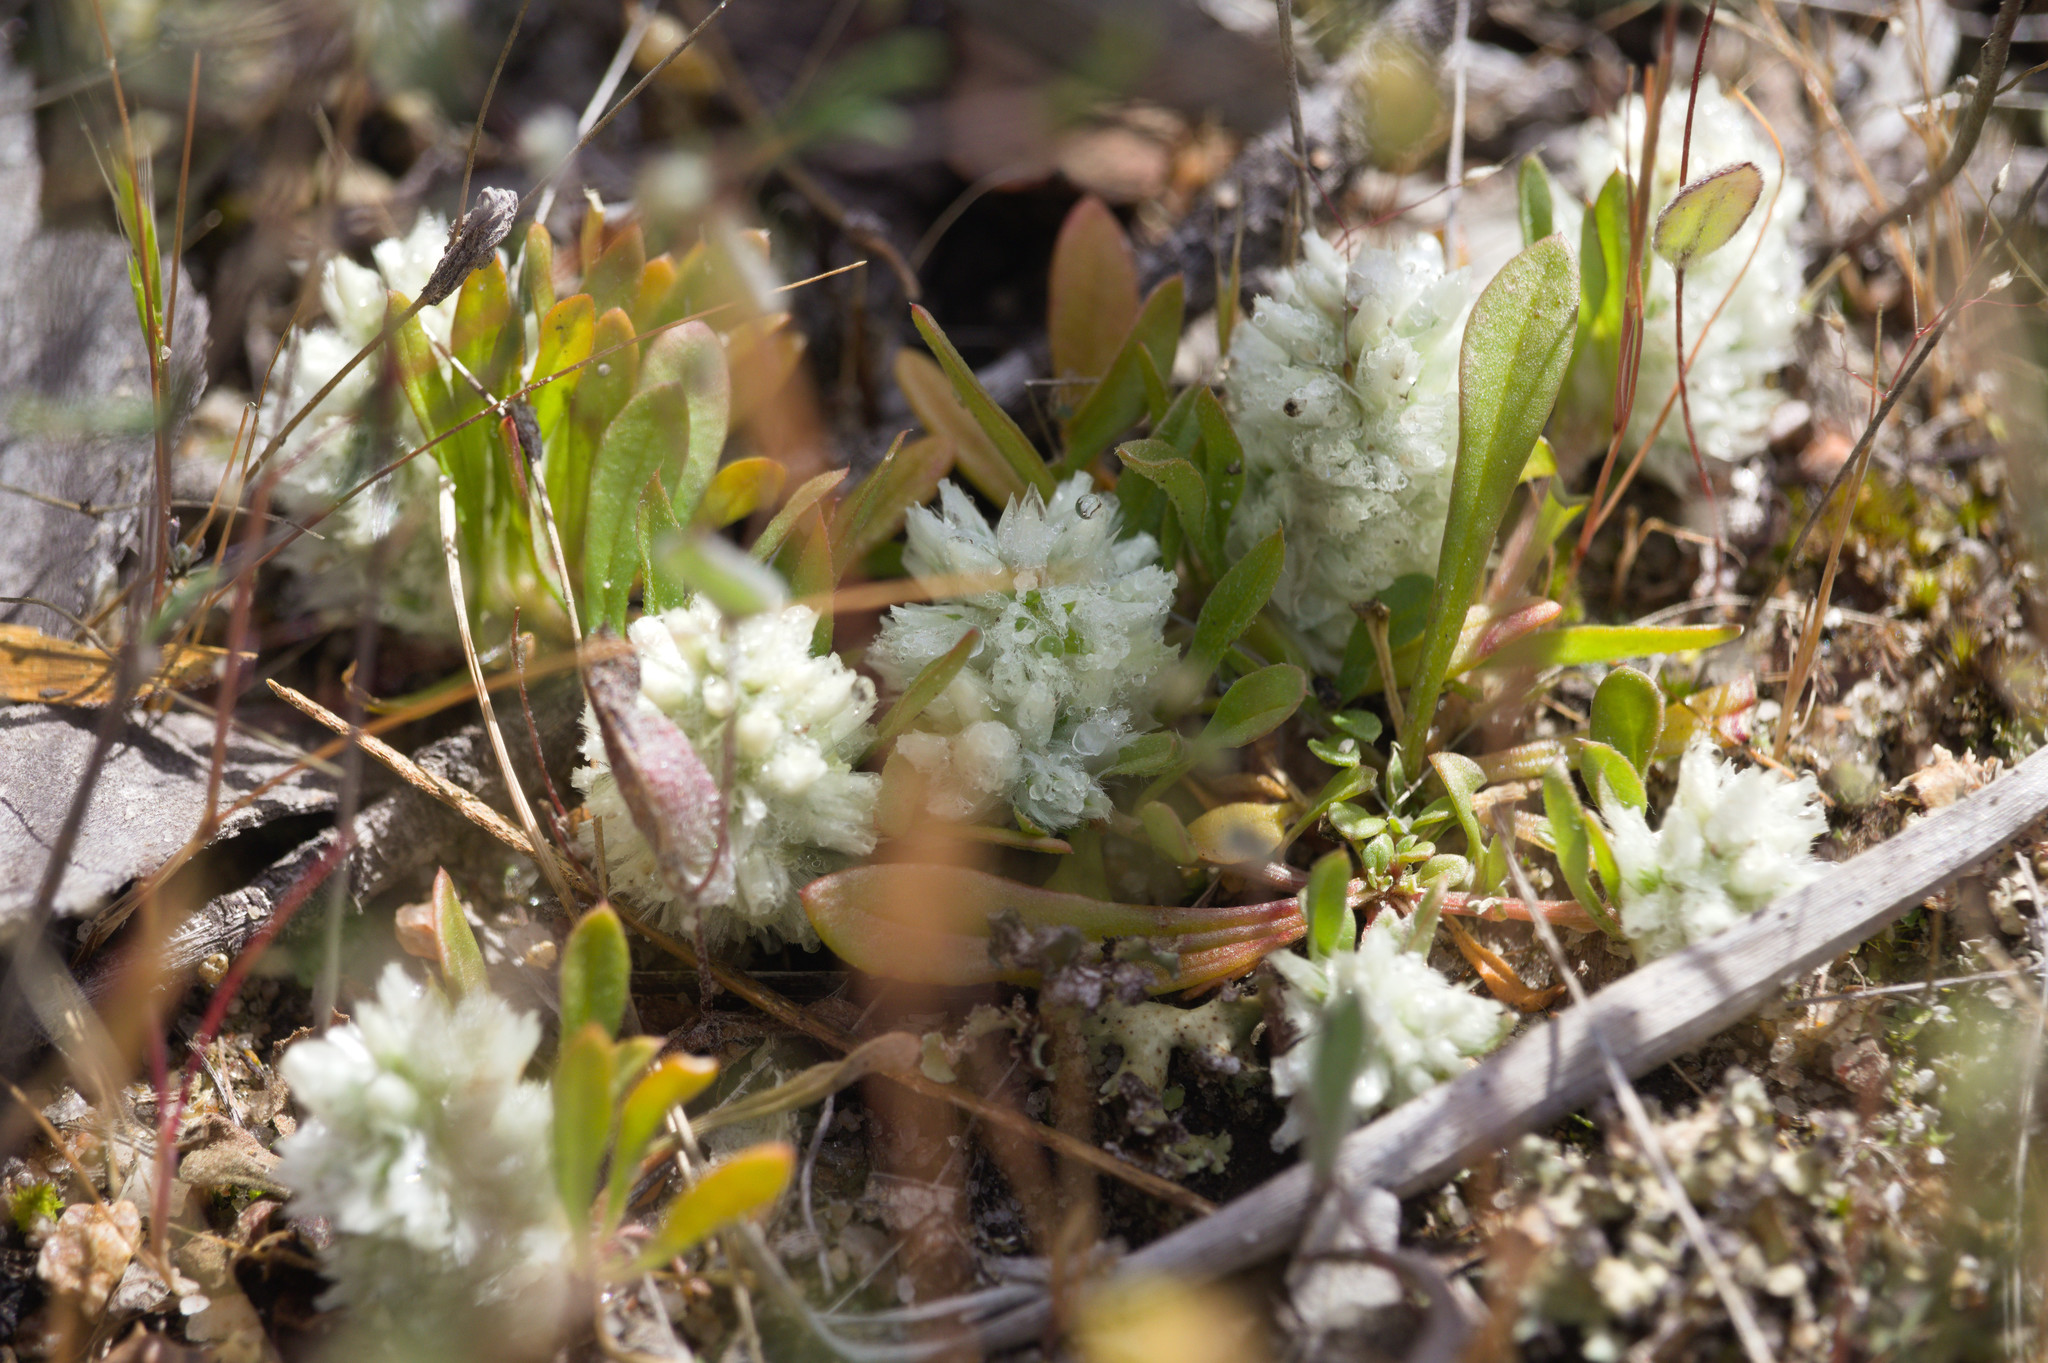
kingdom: Plantae
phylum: Tracheophyta
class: Magnoliopsida
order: Caryophyllales
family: Amaranthaceae
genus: Ptilotus
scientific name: Ptilotus humilis
